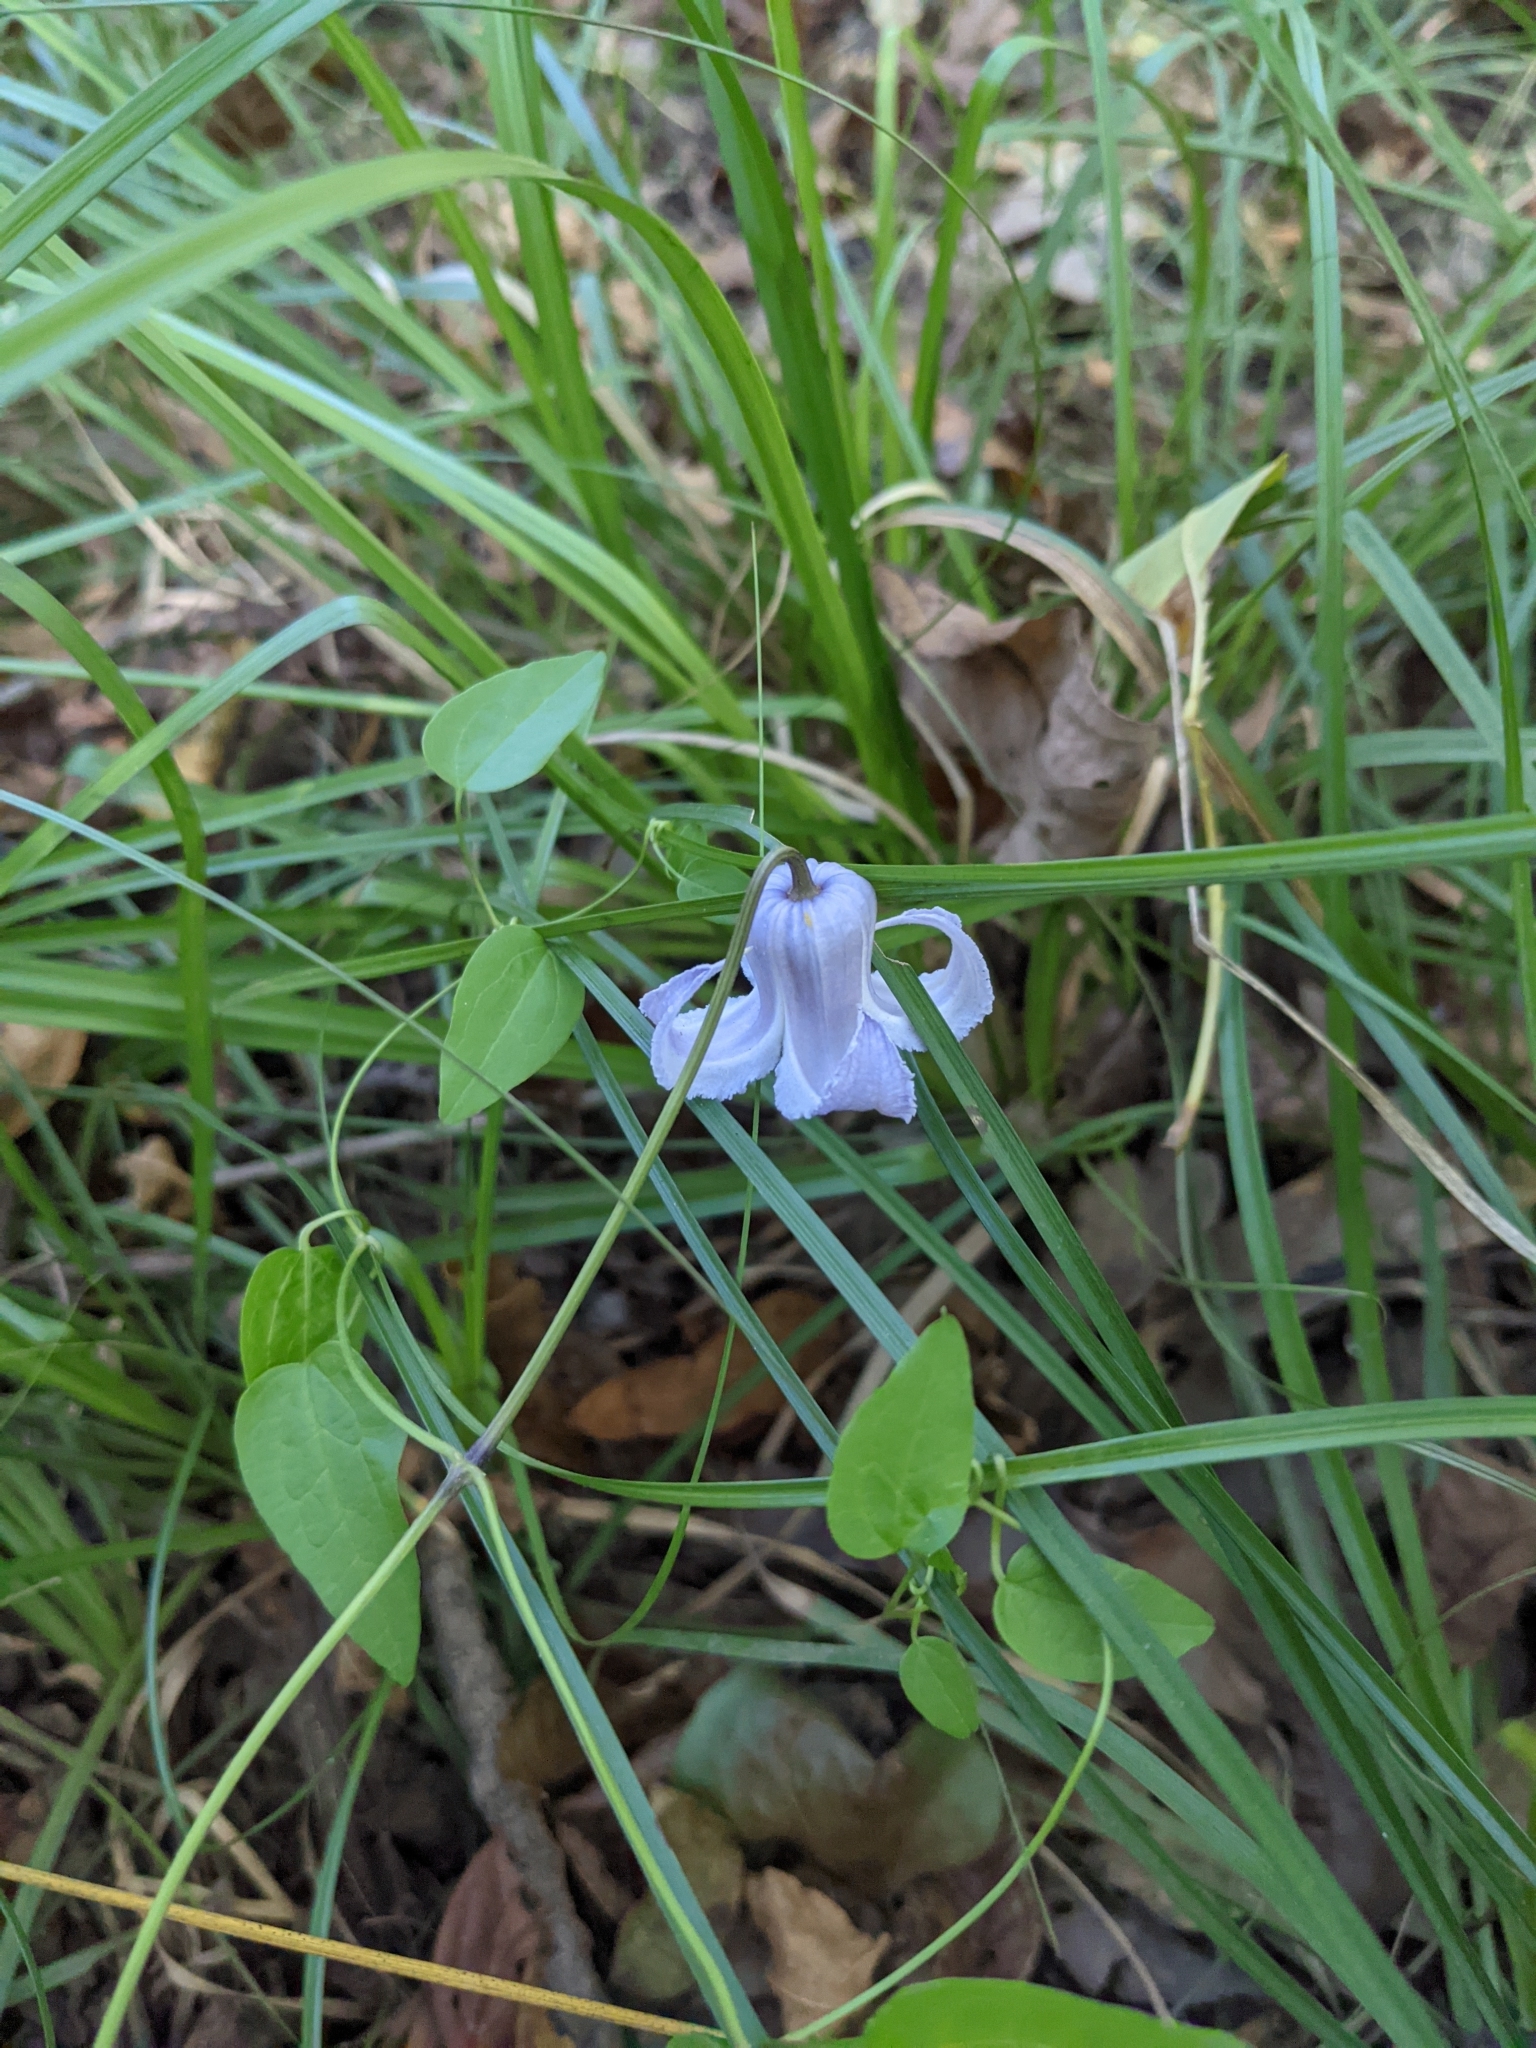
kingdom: Plantae
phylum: Tracheophyta
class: Magnoliopsida
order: Ranunculales
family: Ranunculaceae
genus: Clematis
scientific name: Clematis crispa
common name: Curly clematis
